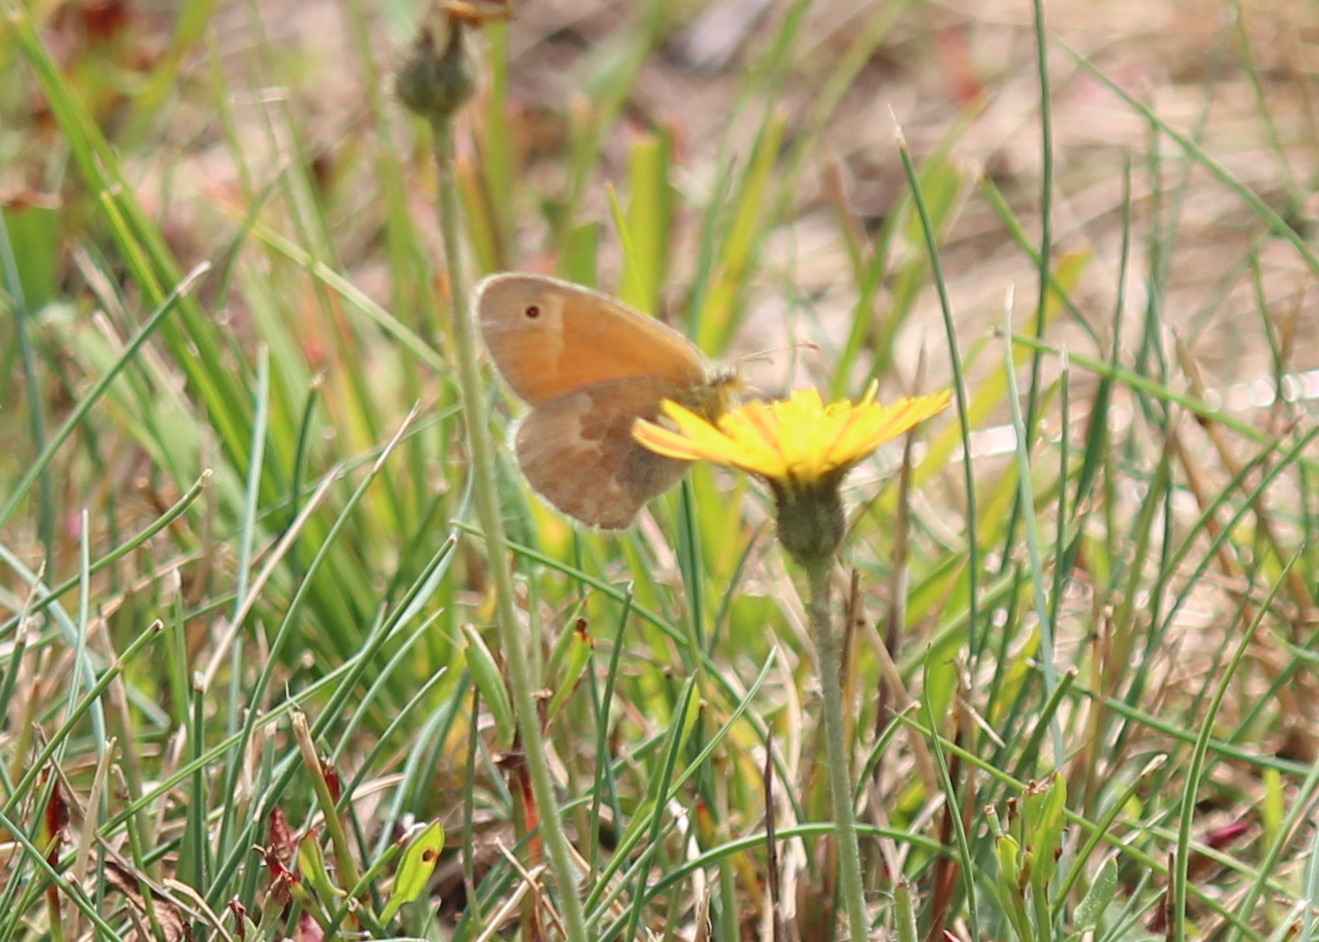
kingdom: Animalia
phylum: Arthropoda
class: Insecta
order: Lepidoptera
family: Nymphalidae
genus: Coenonympha
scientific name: Coenonympha california
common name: Common ringlet
